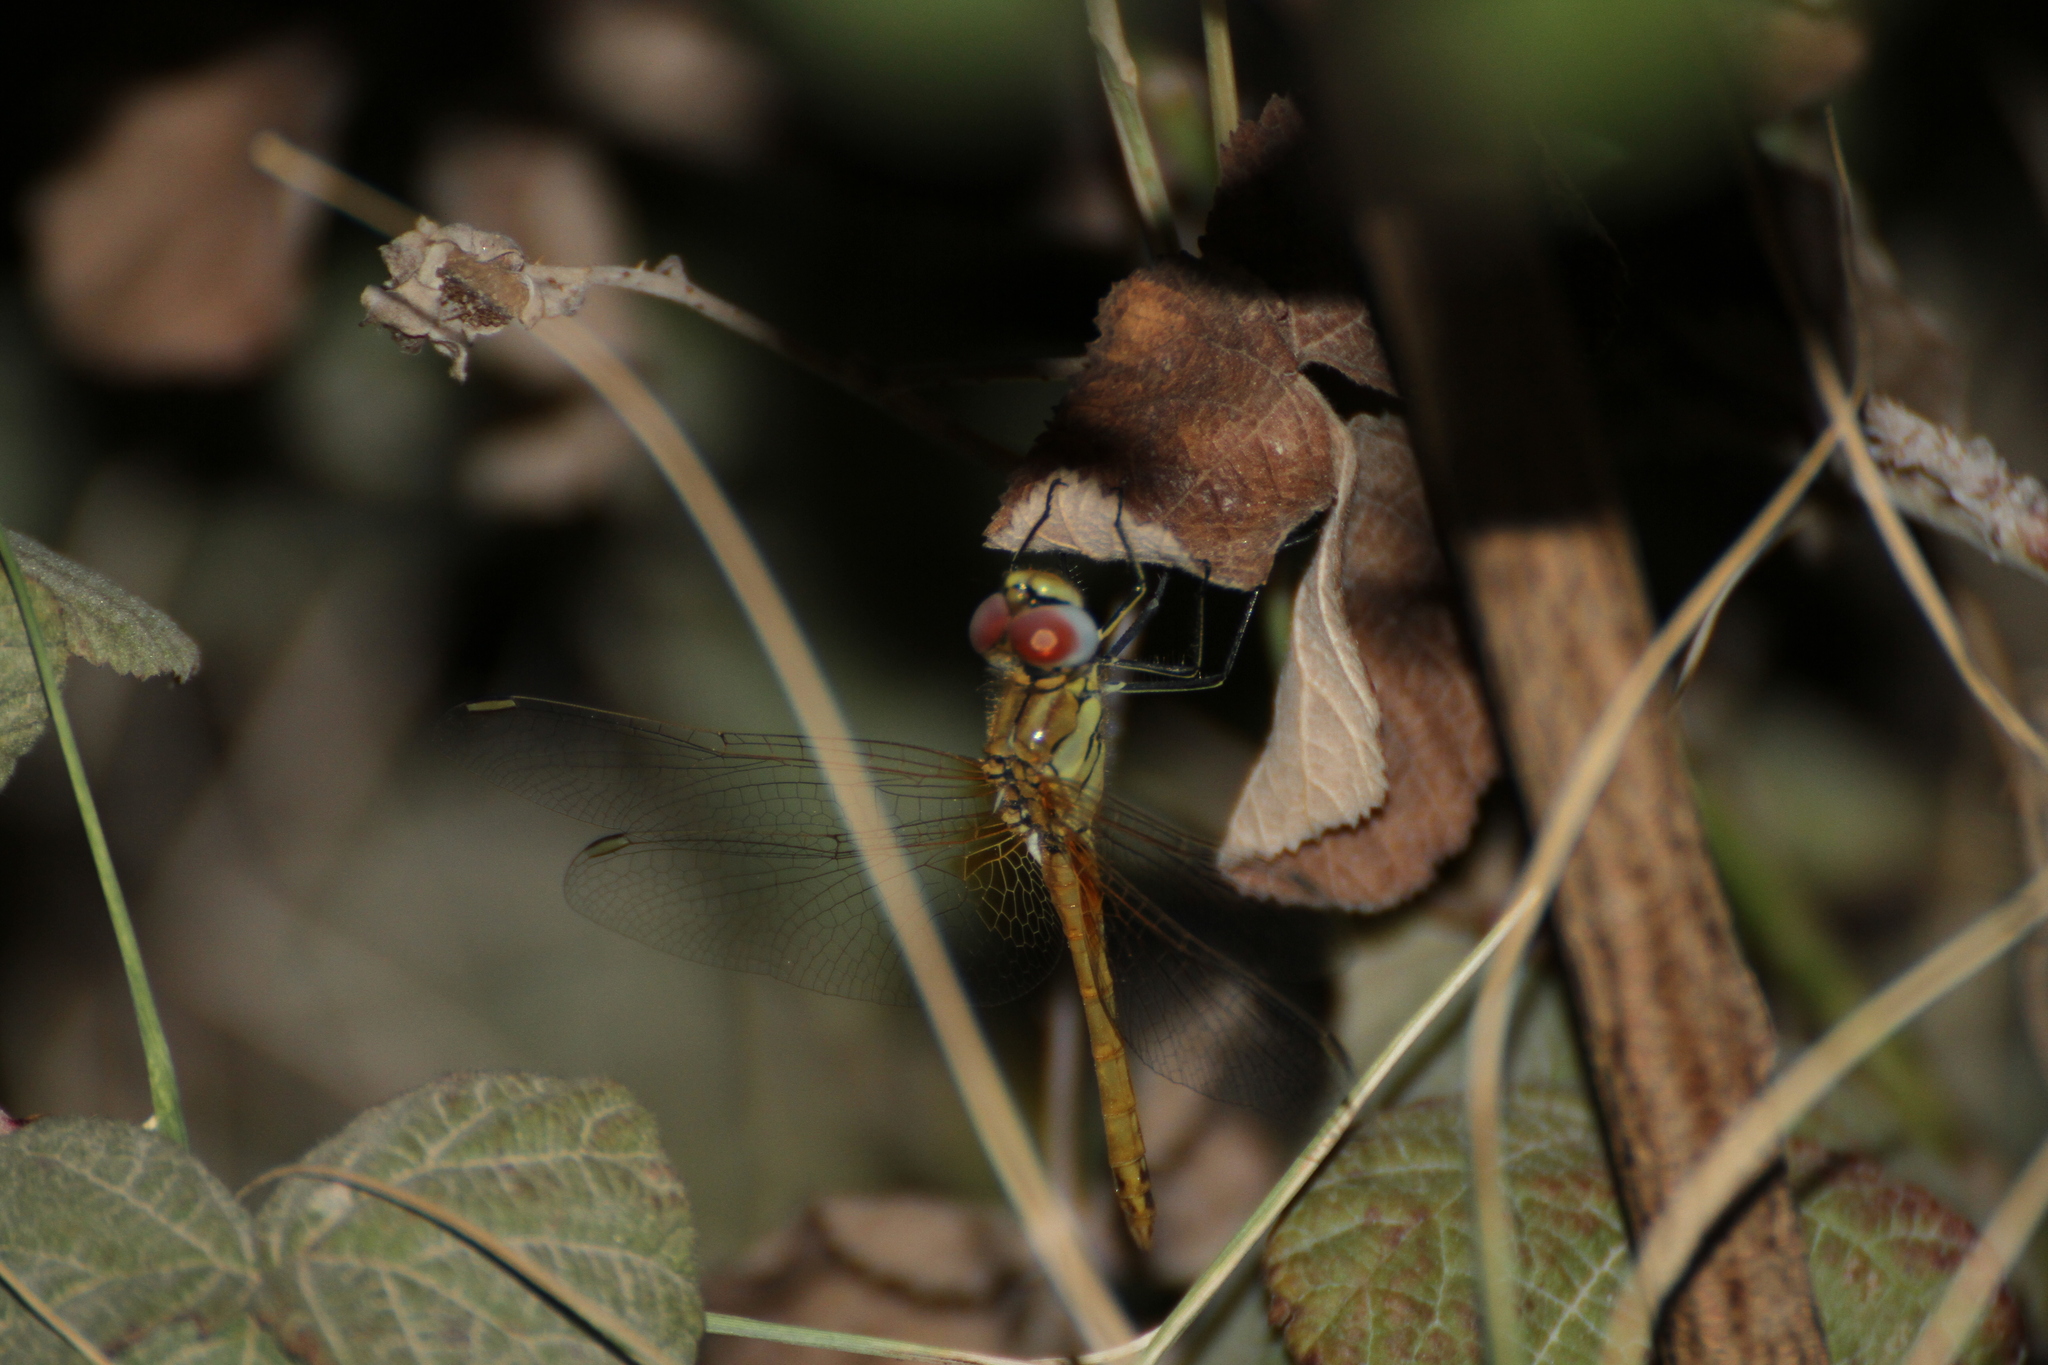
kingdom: Animalia
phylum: Arthropoda
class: Insecta
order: Odonata
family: Libellulidae
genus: Sympetrum
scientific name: Sympetrum fonscolombii
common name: Red-veined darter
